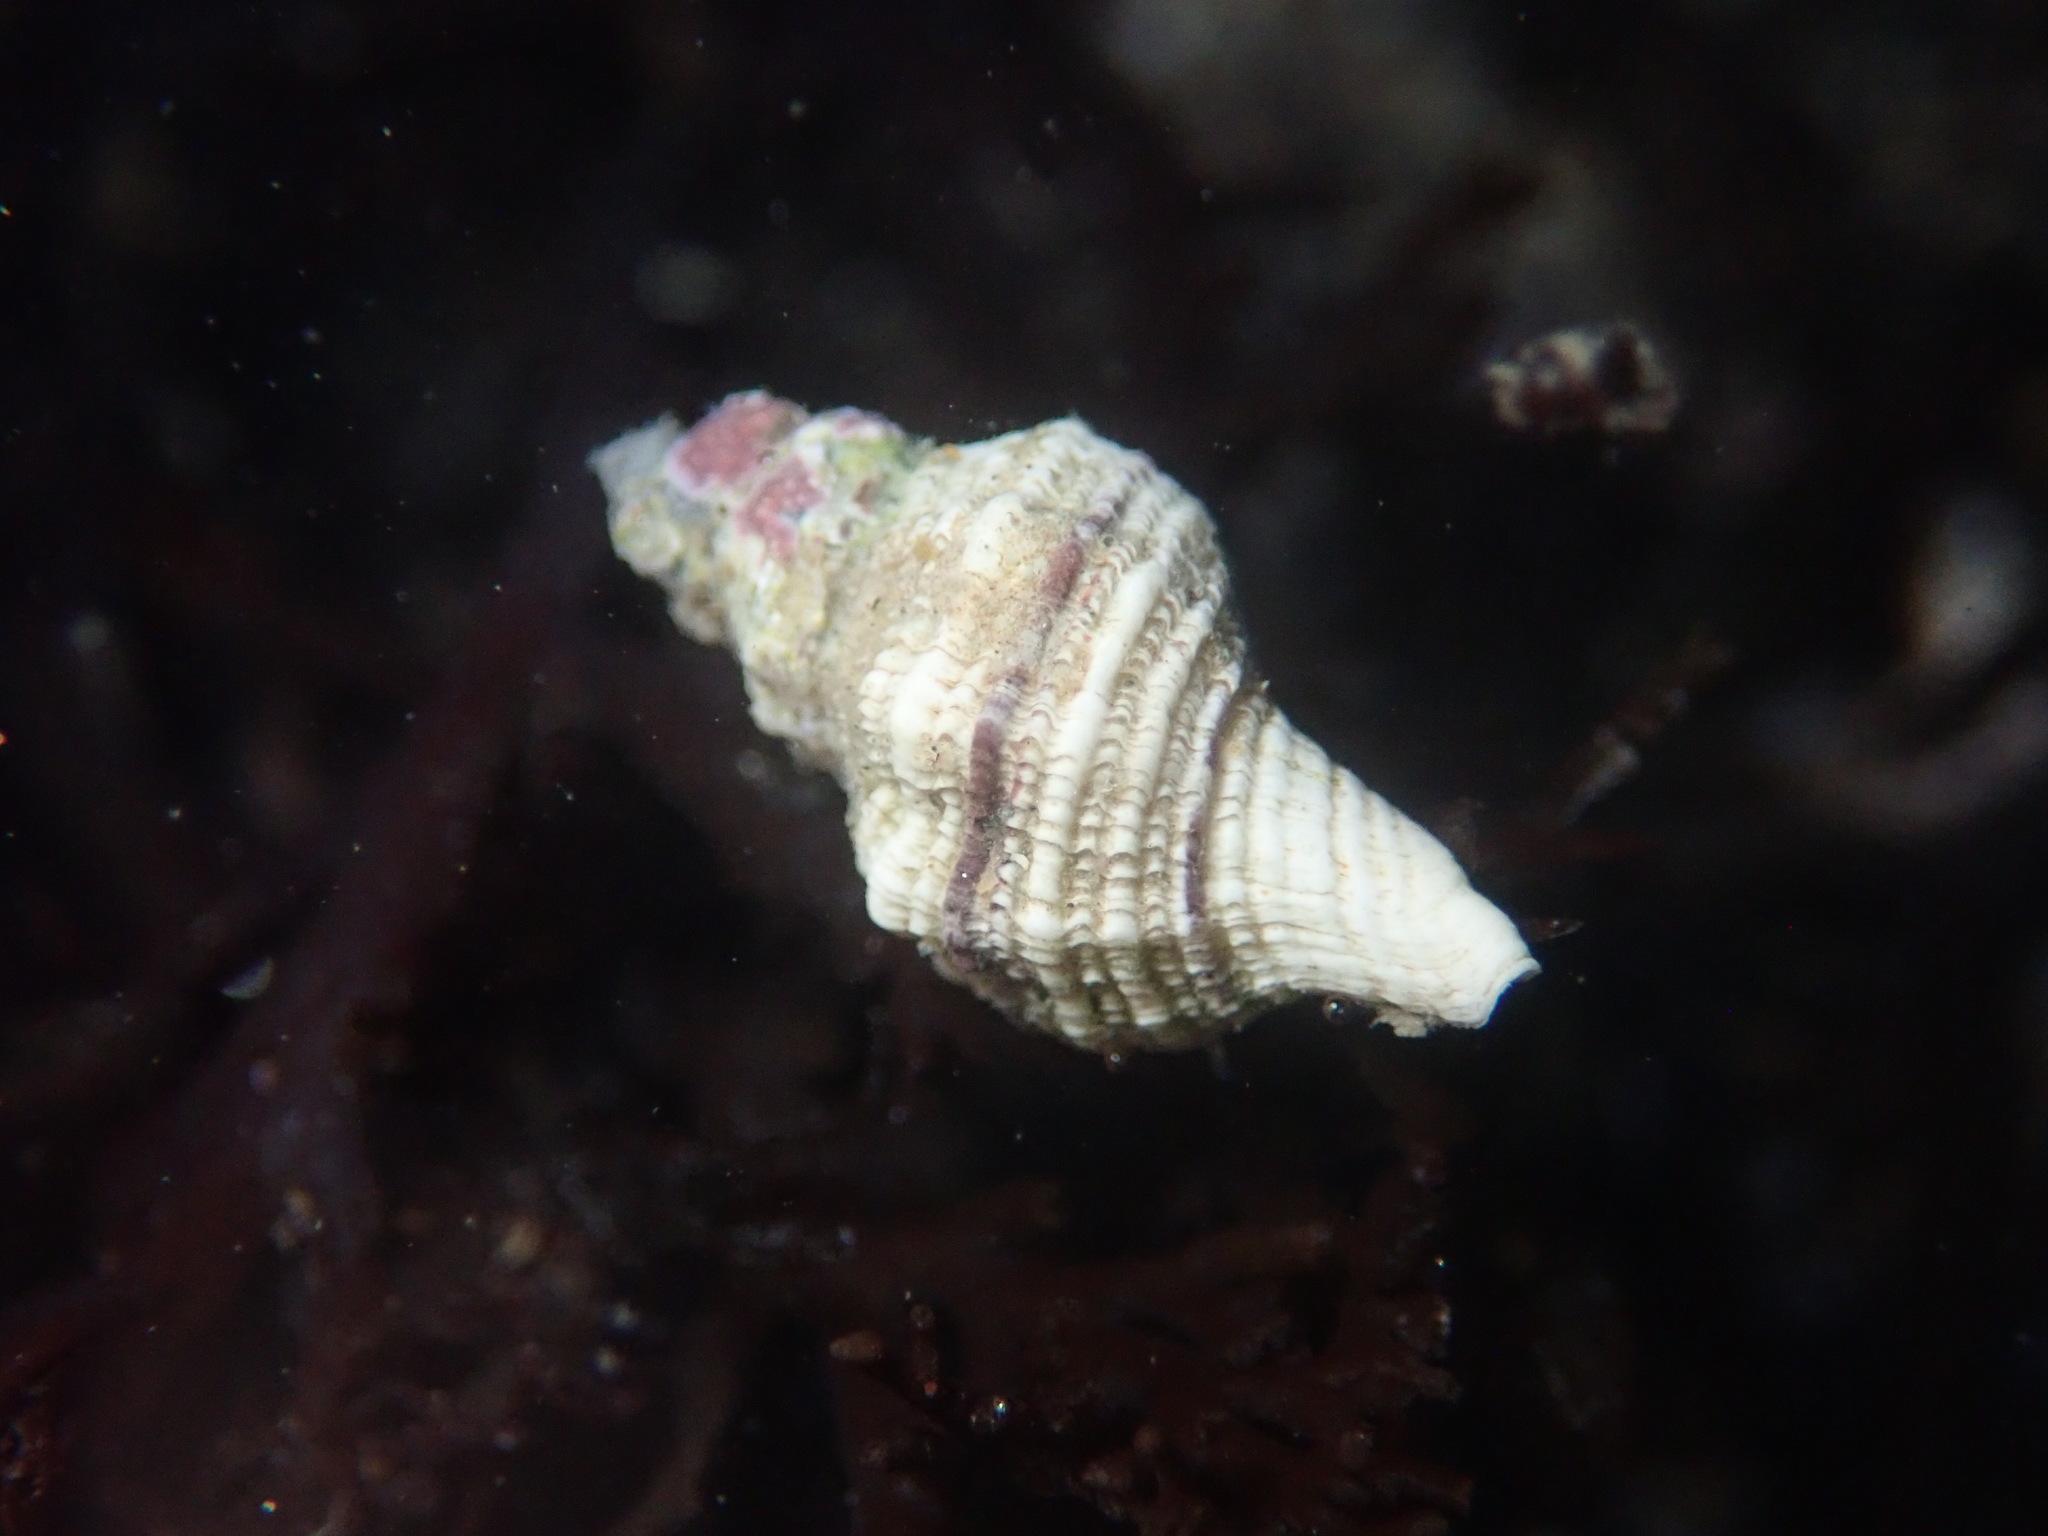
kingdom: Animalia
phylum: Mollusca
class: Gastropoda
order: Neogastropoda
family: Muricidae
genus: Urosalpinx
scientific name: Urosalpinx subangulata
